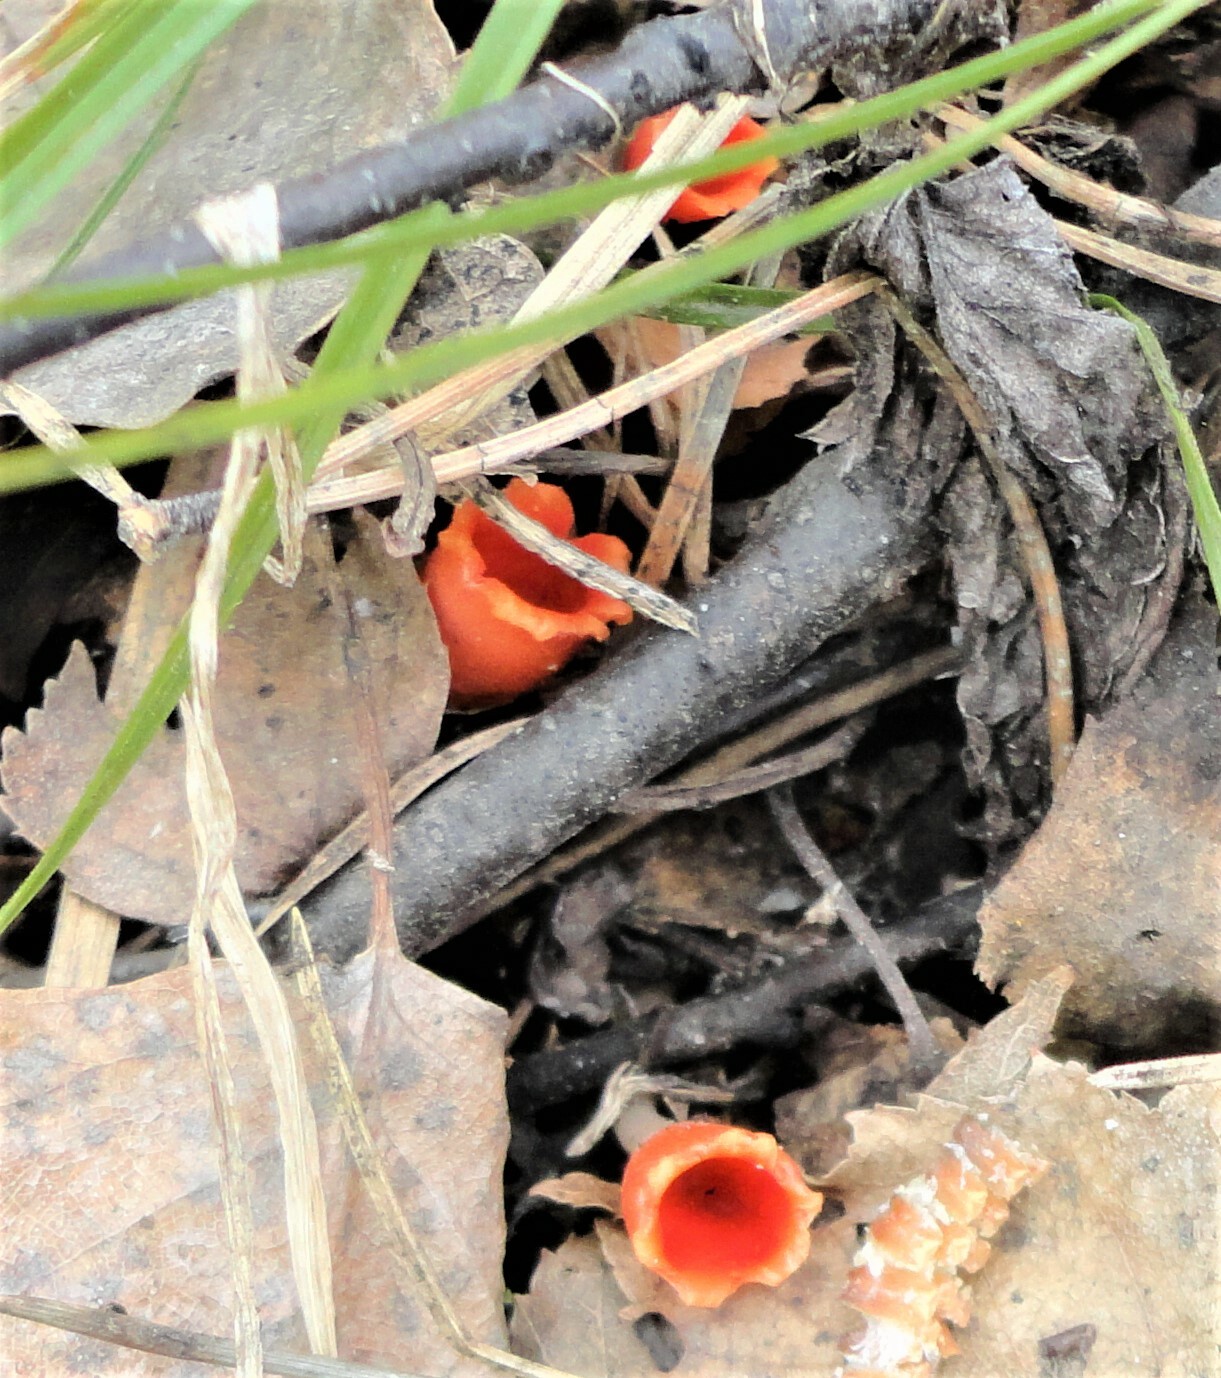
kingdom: Fungi
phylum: Ascomycota
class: Pezizomycetes
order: Pezizales
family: Sarcoscyphaceae
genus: Microstoma
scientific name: Microstoma protractum
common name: Rosy goblet
